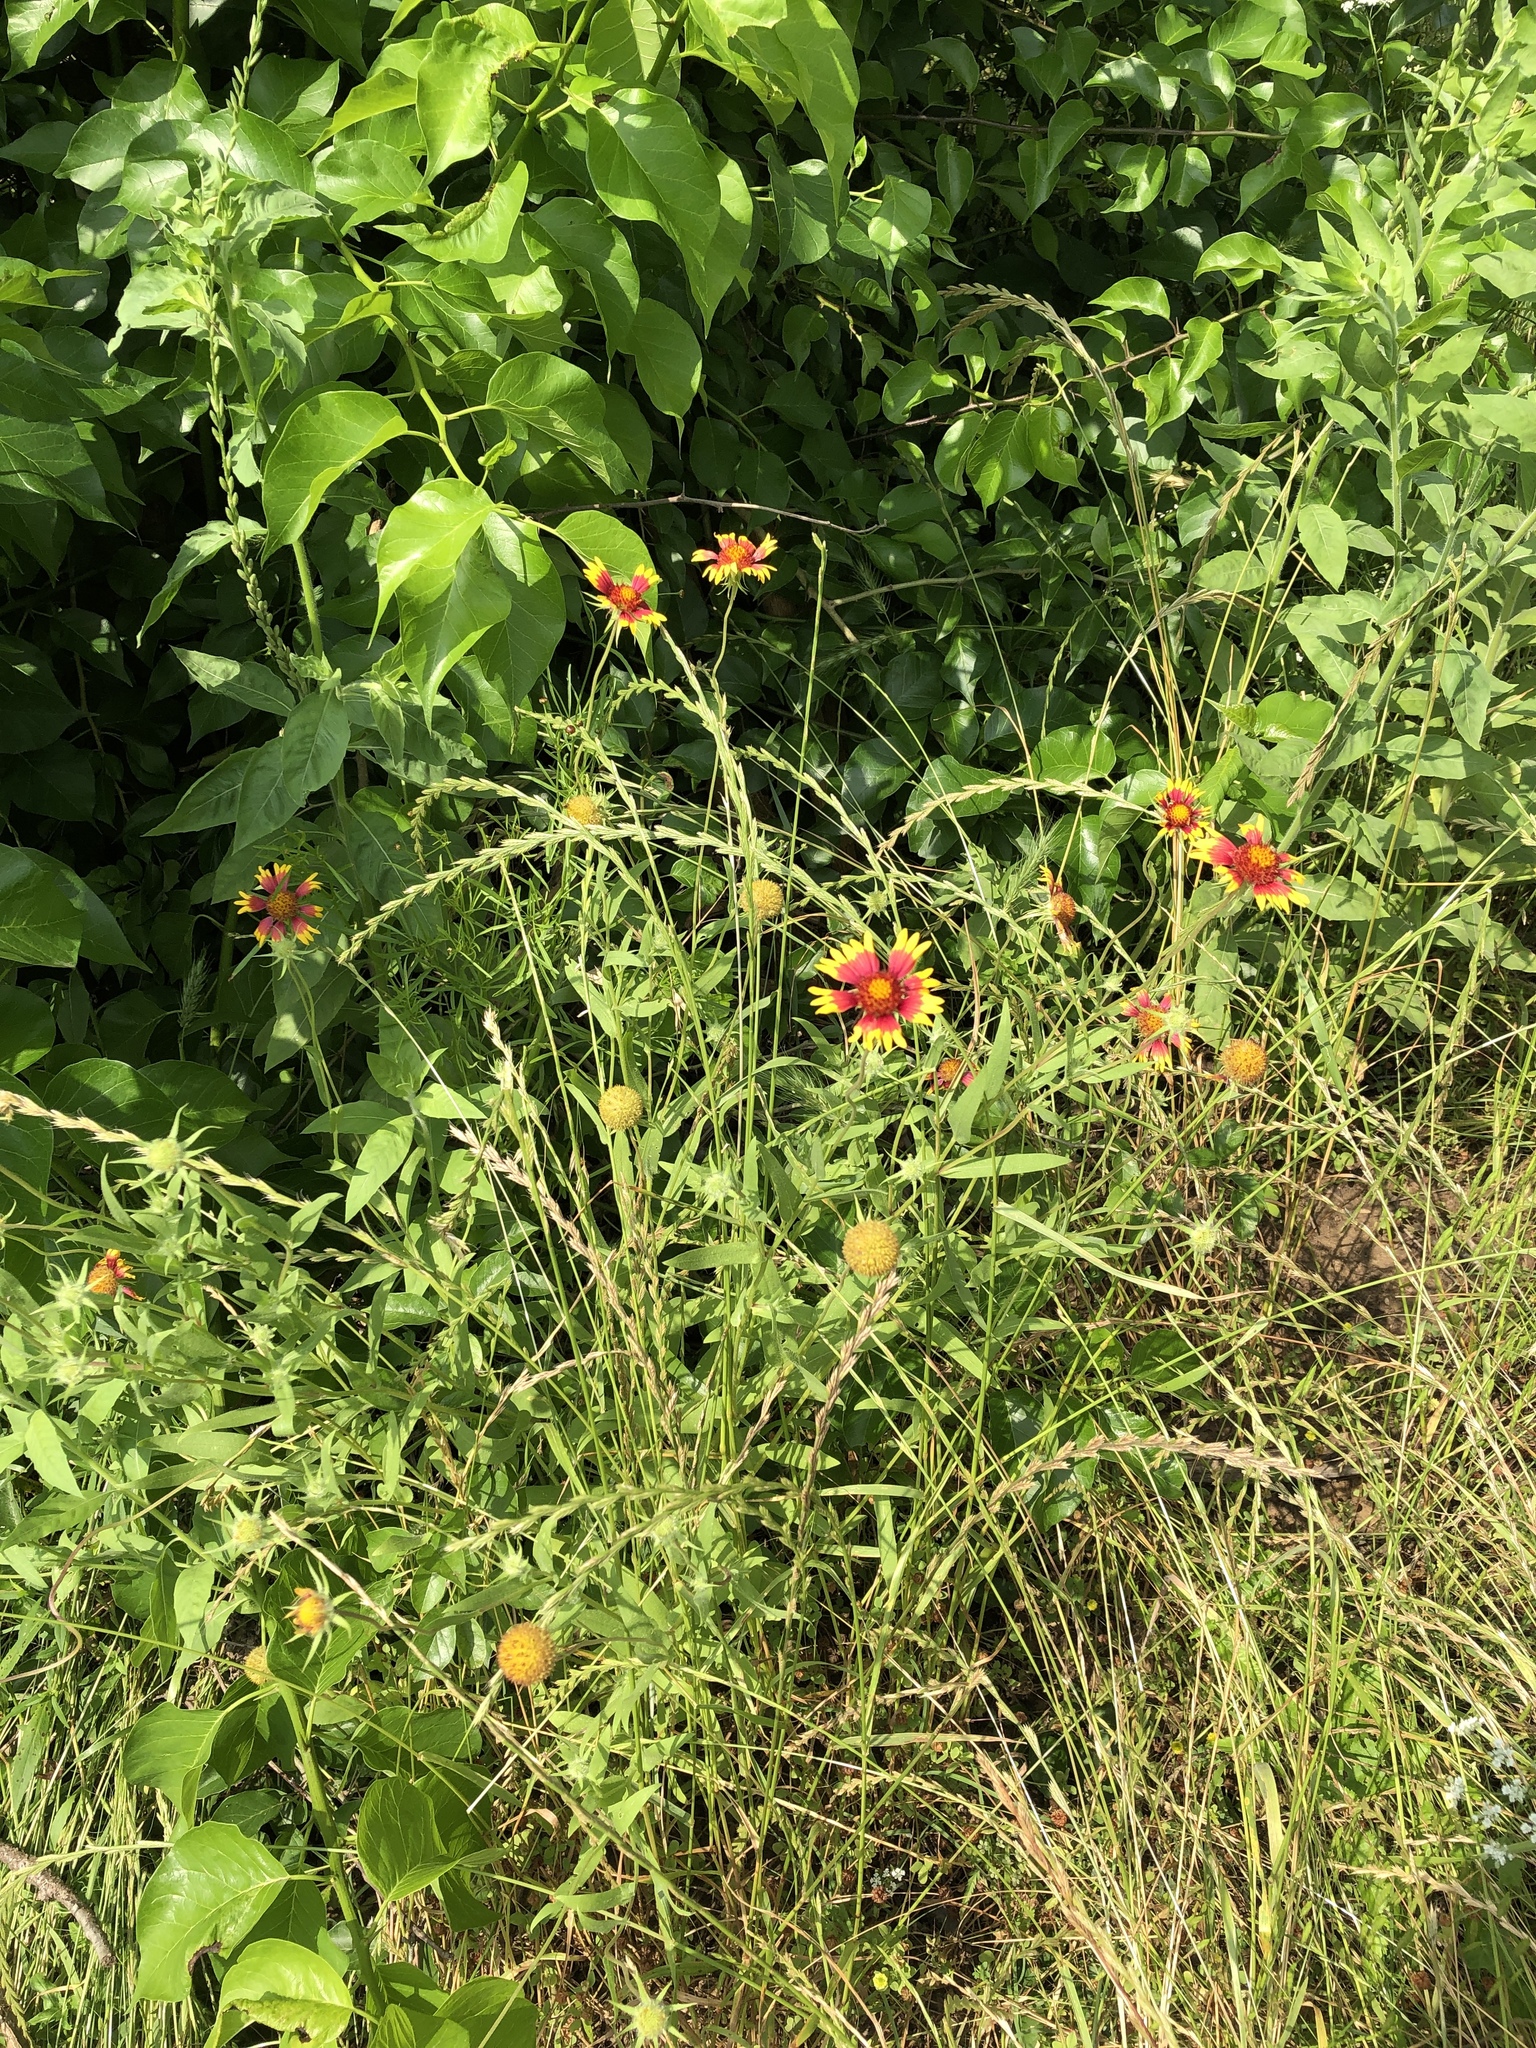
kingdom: Plantae
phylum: Tracheophyta
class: Magnoliopsida
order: Asterales
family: Asteraceae
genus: Gaillardia
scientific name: Gaillardia pulchella
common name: Firewheel
